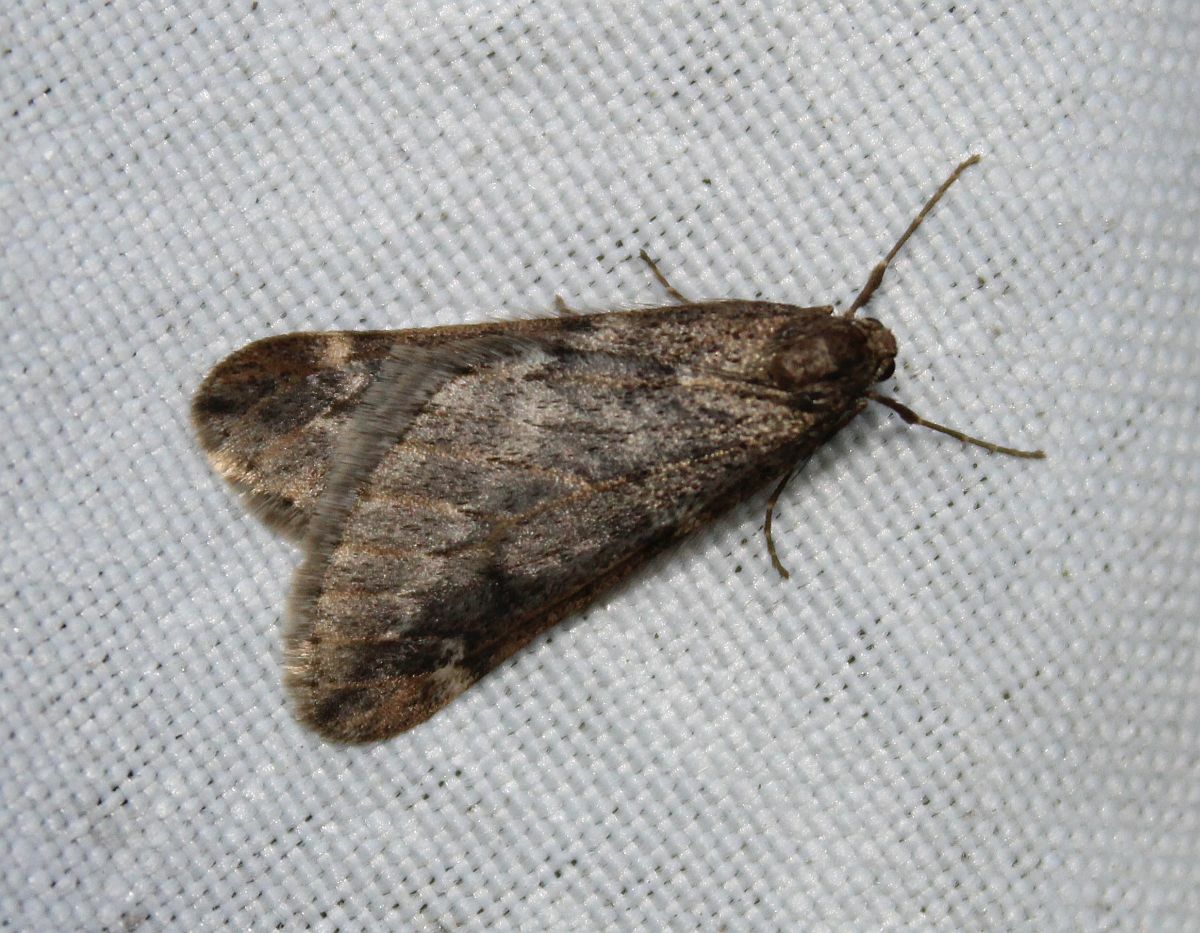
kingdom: Animalia
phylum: Arthropoda
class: Insecta
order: Lepidoptera
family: Geometridae
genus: Alsophila
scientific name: Alsophila aescularia
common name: March moth
